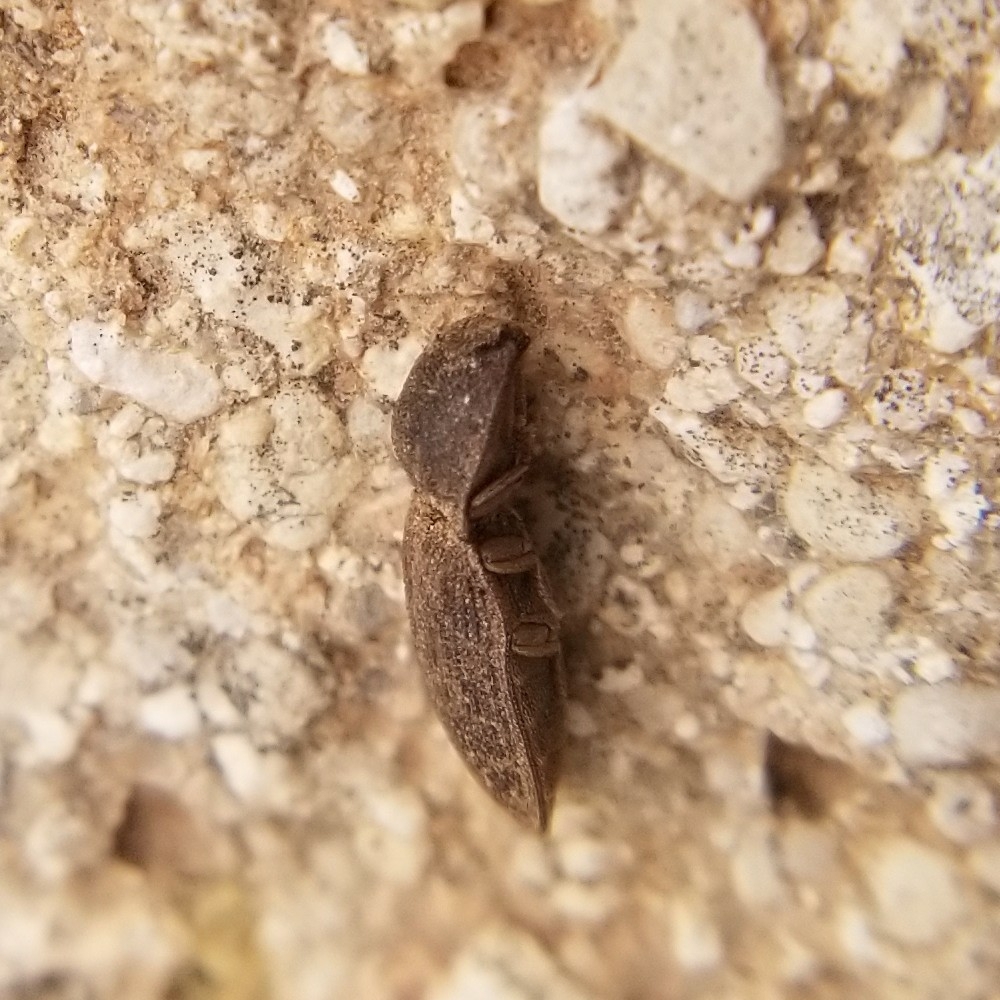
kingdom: Animalia
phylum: Arthropoda
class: Insecta
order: Coleoptera
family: Elateridae
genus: Agrypnus
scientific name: Agrypnus rectangularis
